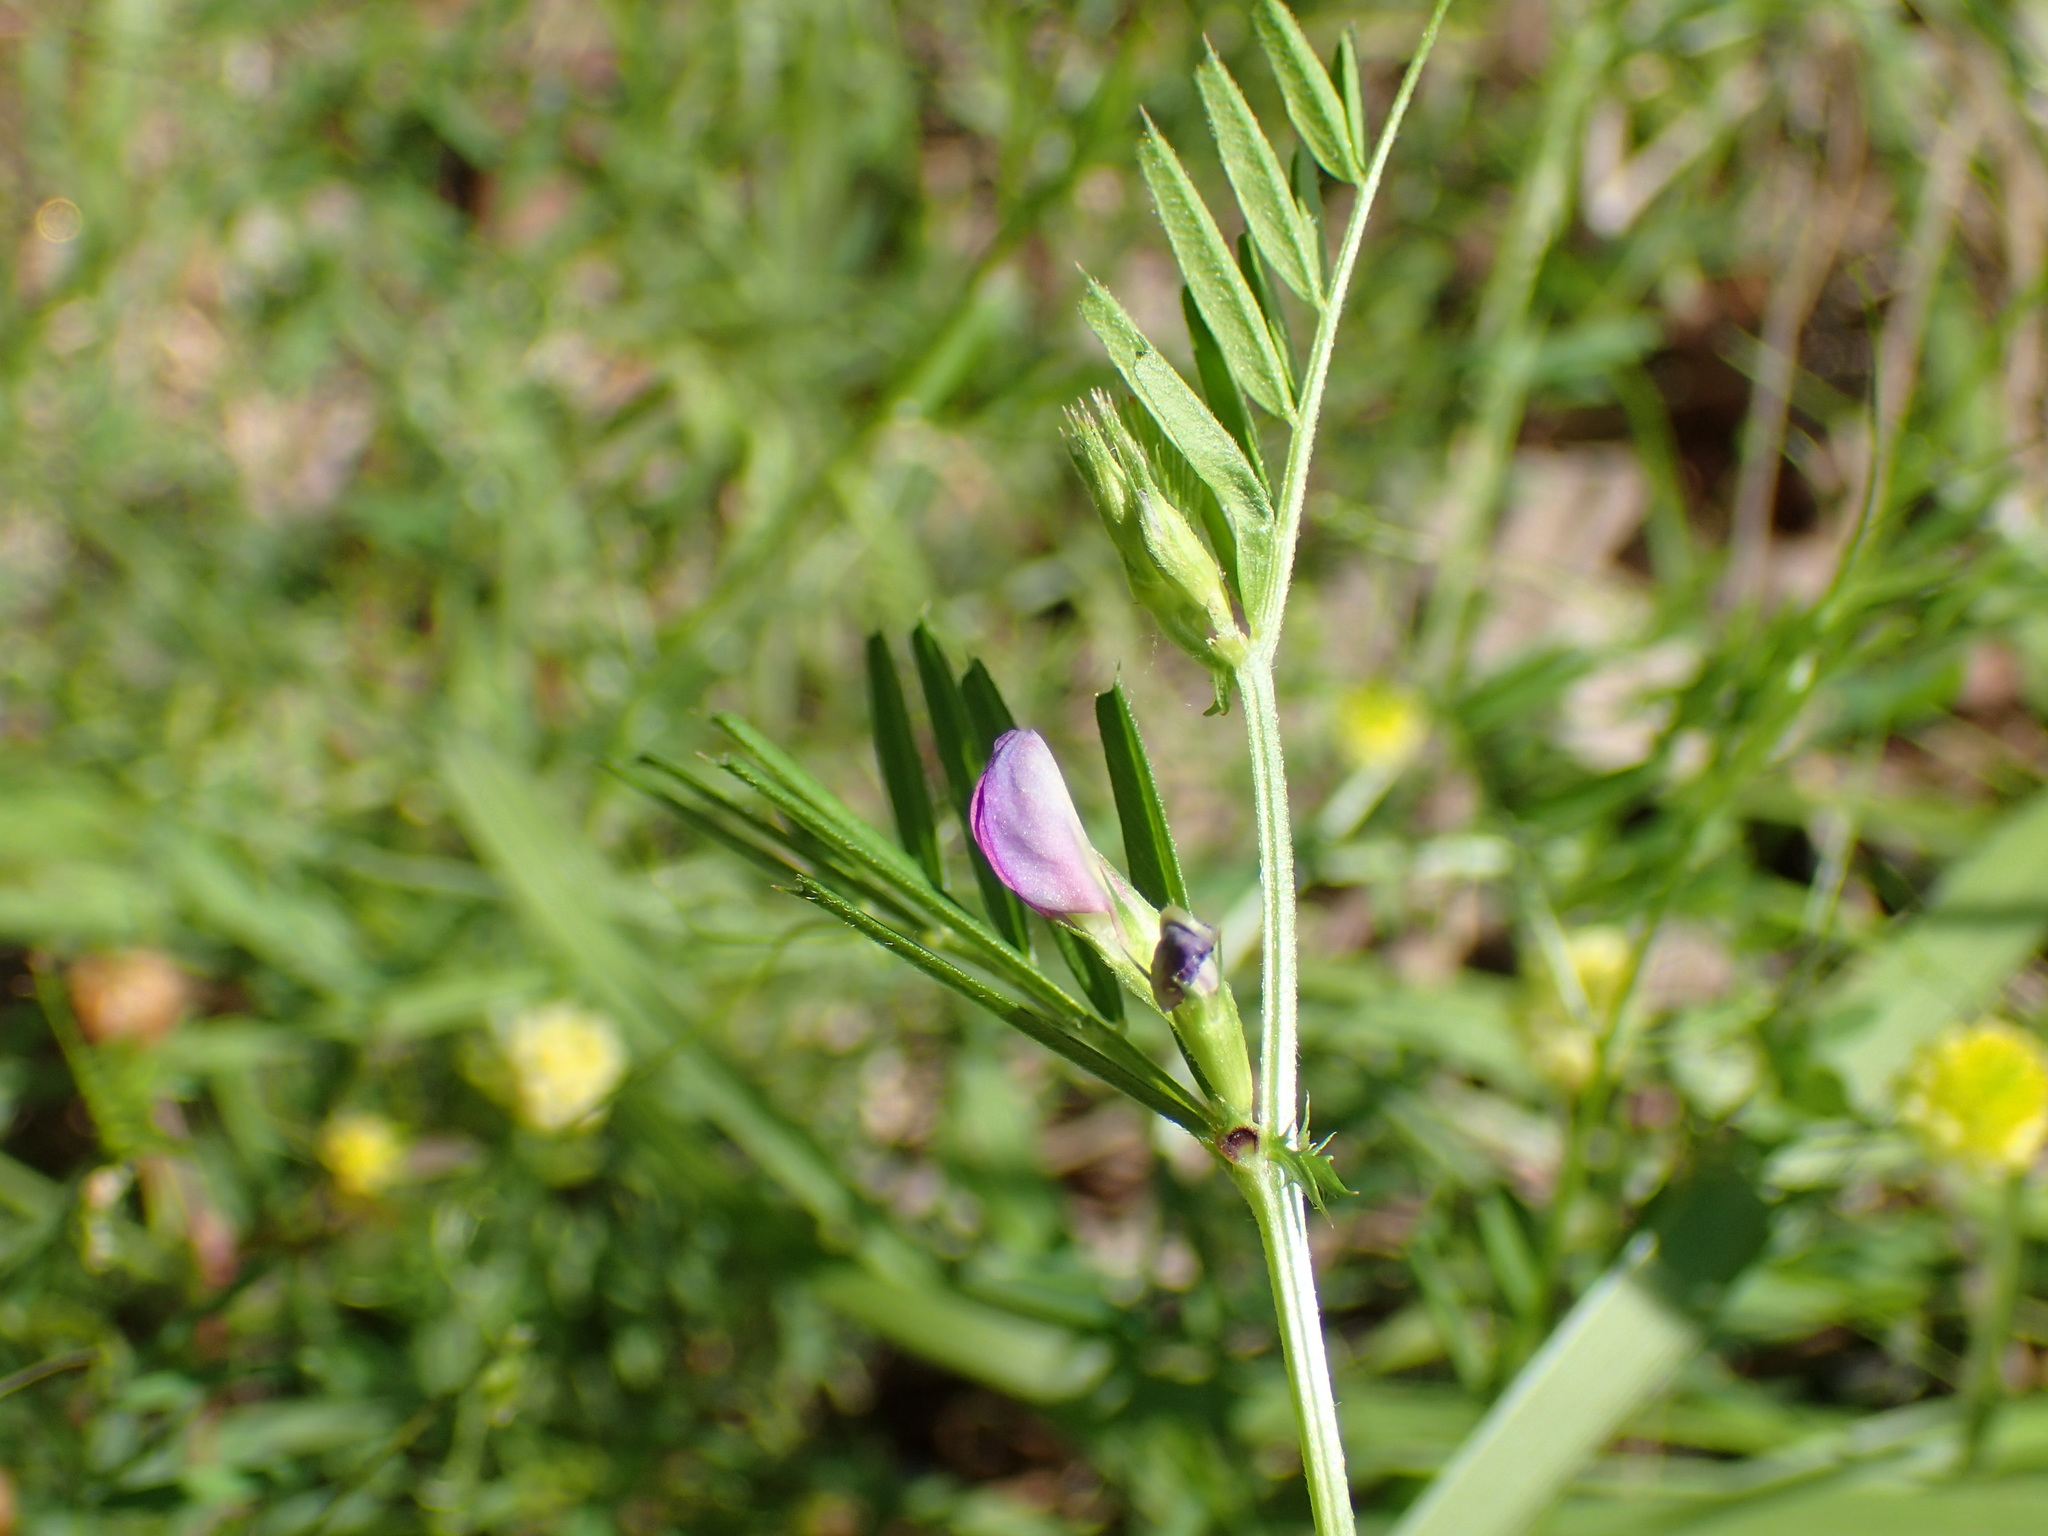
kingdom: Plantae
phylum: Tracheophyta
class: Magnoliopsida
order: Fabales
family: Fabaceae
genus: Vicia
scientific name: Vicia sativa
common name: Garden vetch
